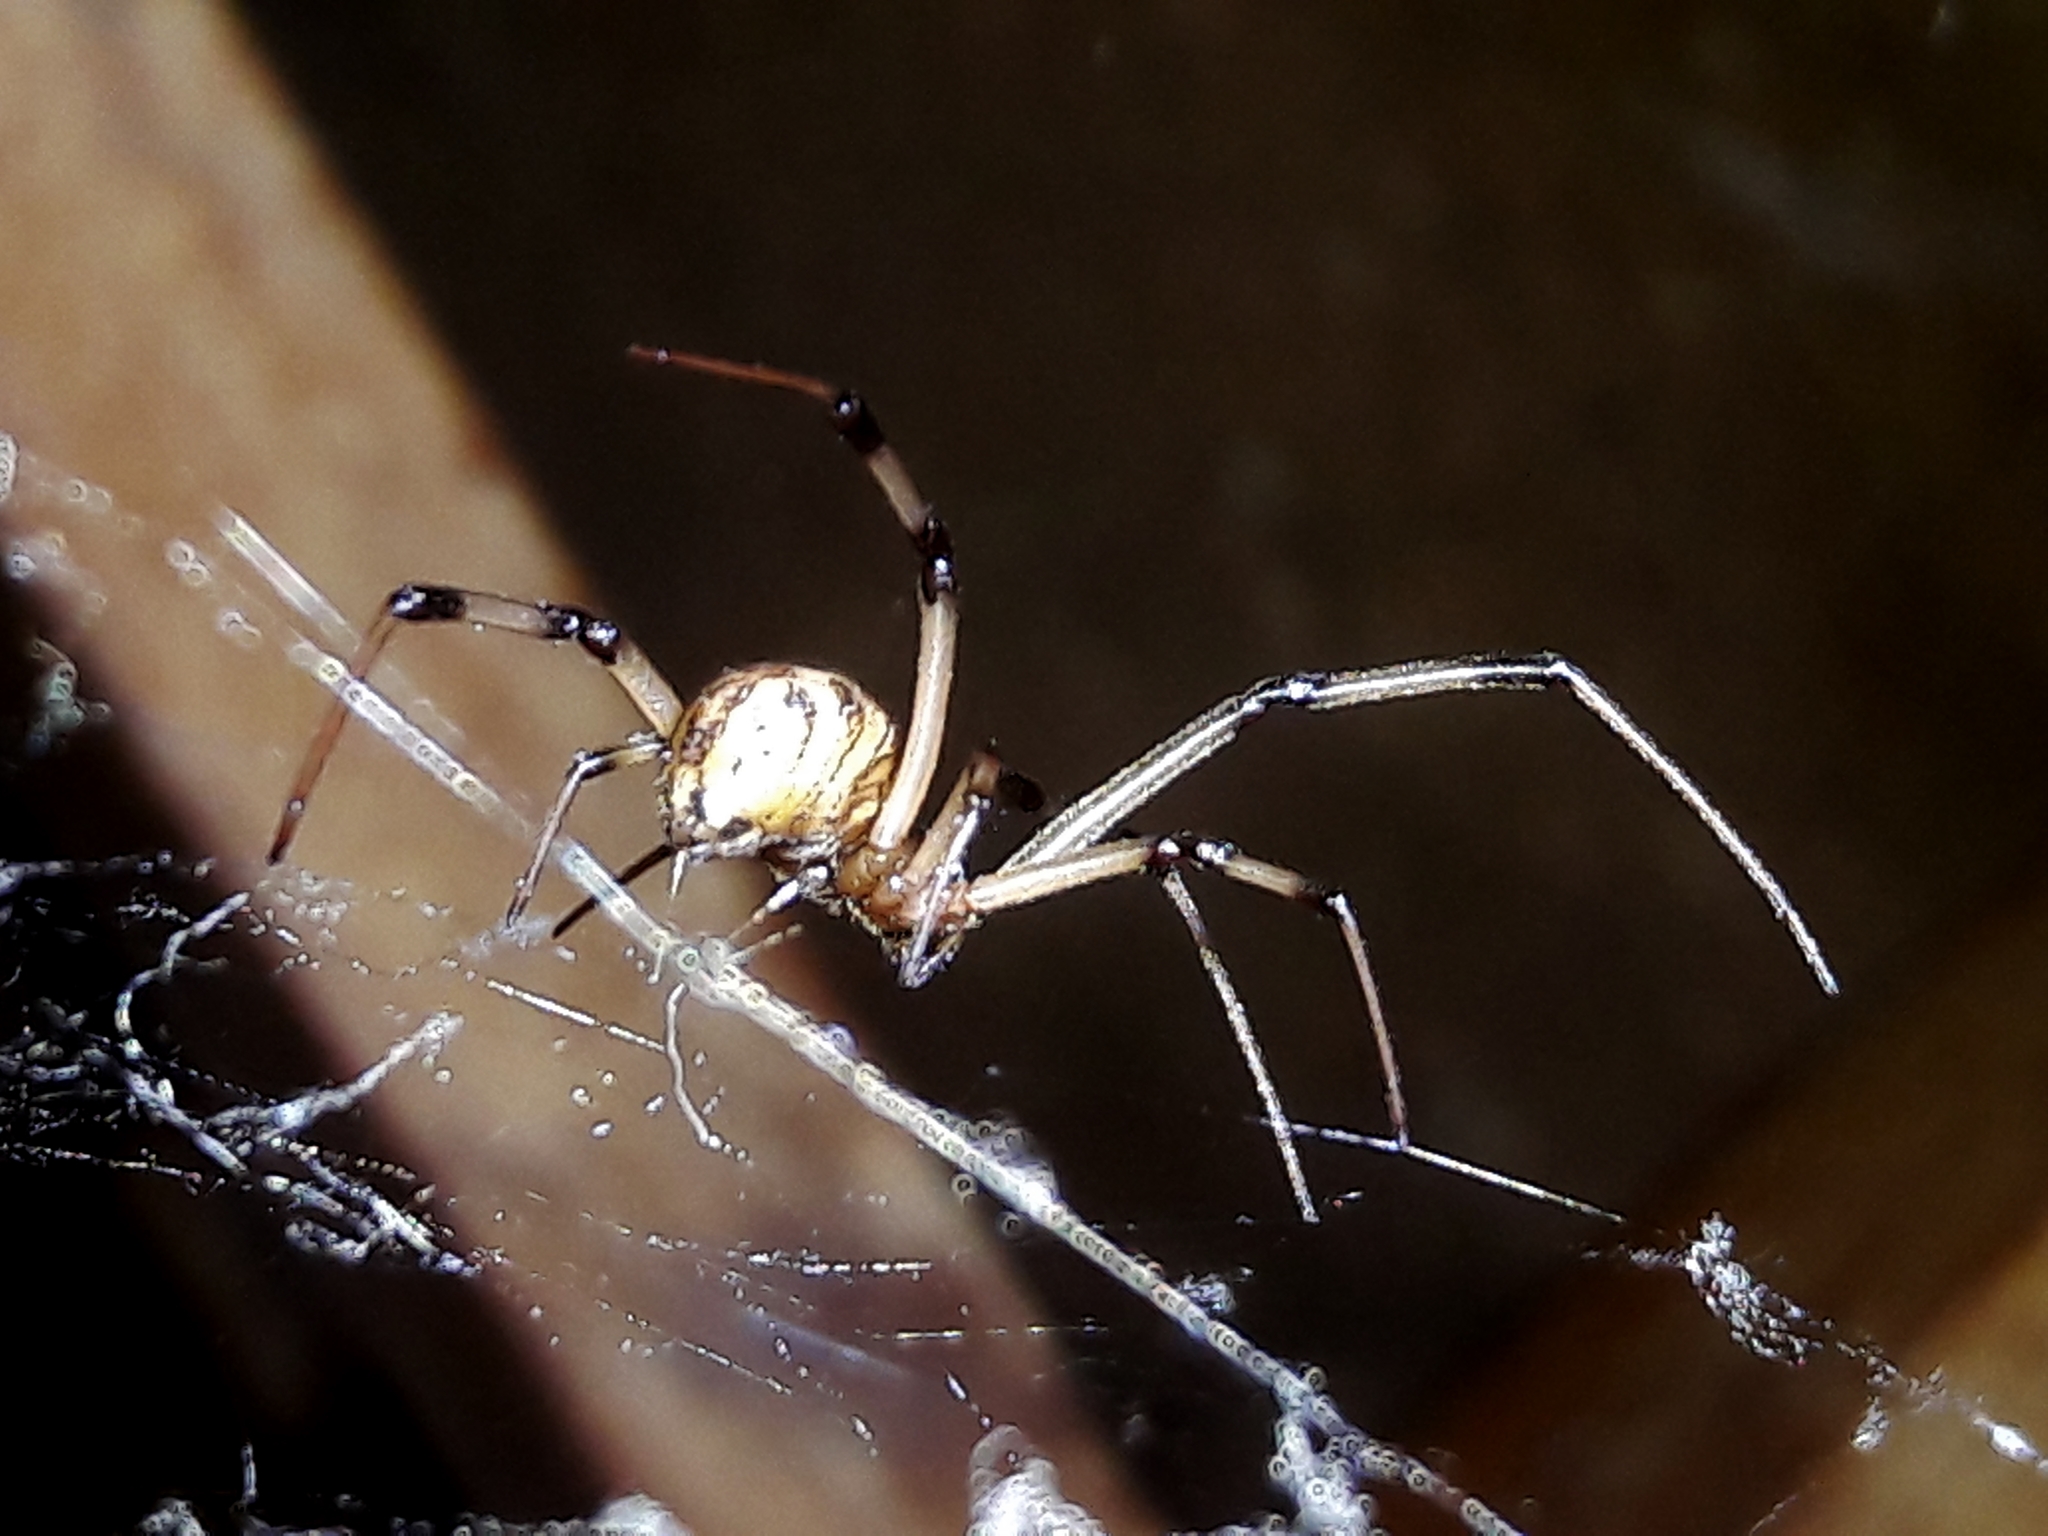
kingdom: Animalia
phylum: Arthropoda
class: Arachnida
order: Araneae
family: Theridiidae
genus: Latrodectus
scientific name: Latrodectus geometricus
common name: Brown widow spider
